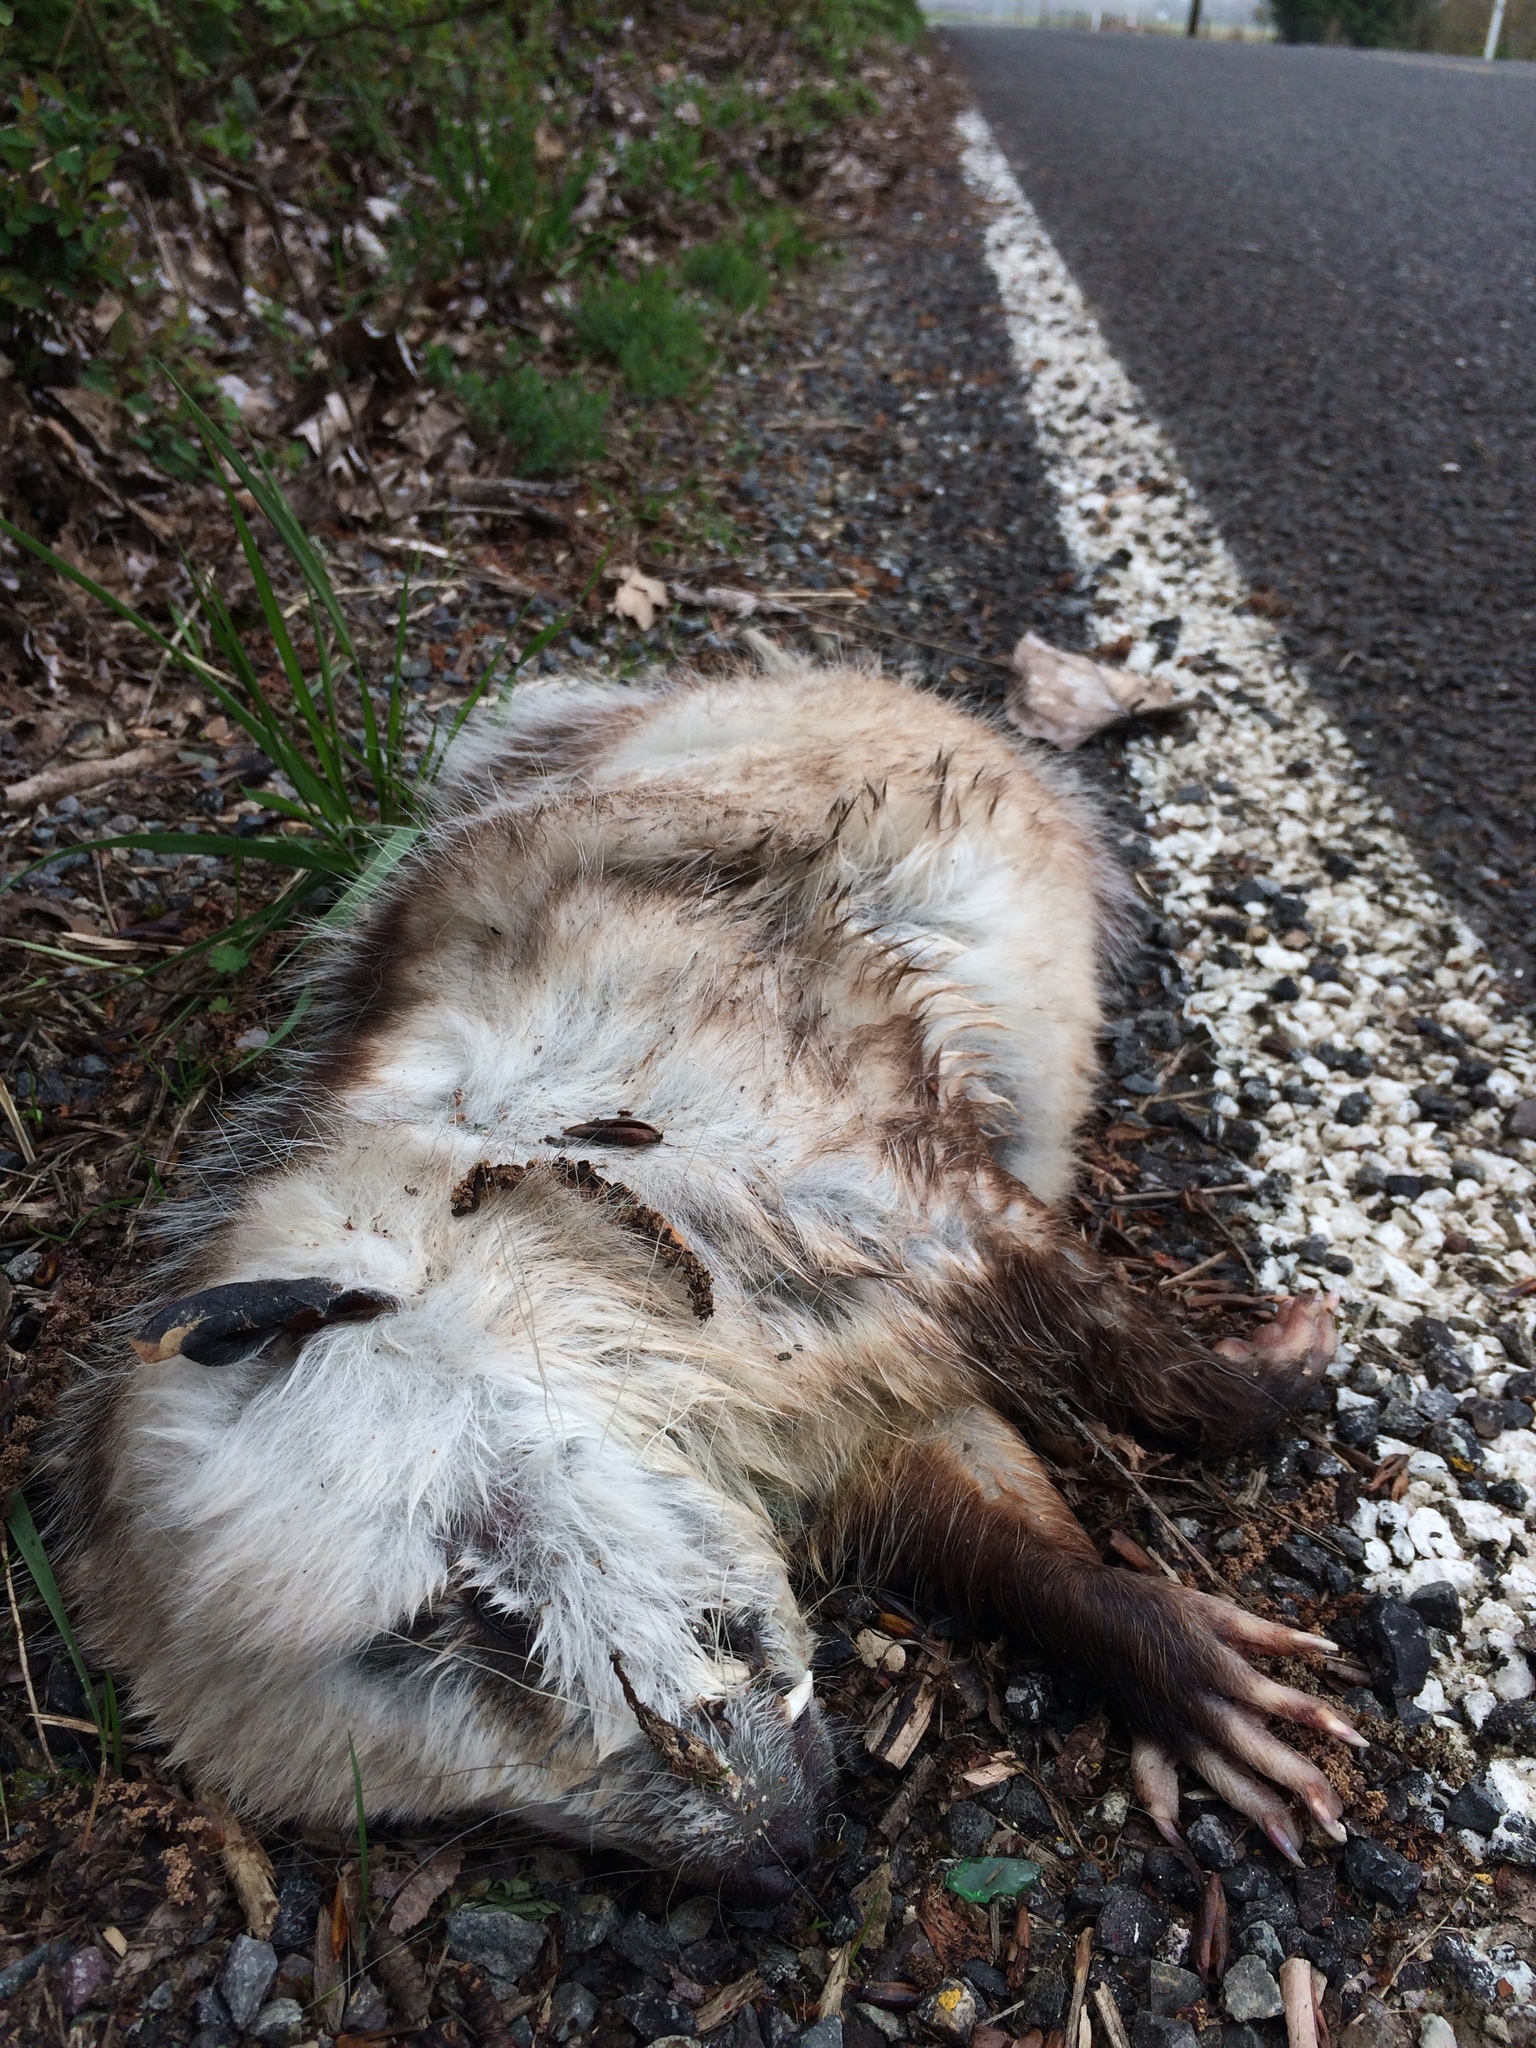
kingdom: Animalia
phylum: Chordata
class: Mammalia
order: Didelphimorphia
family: Didelphidae
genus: Didelphis
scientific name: Didelphis virginiana
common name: Virginia opossum
